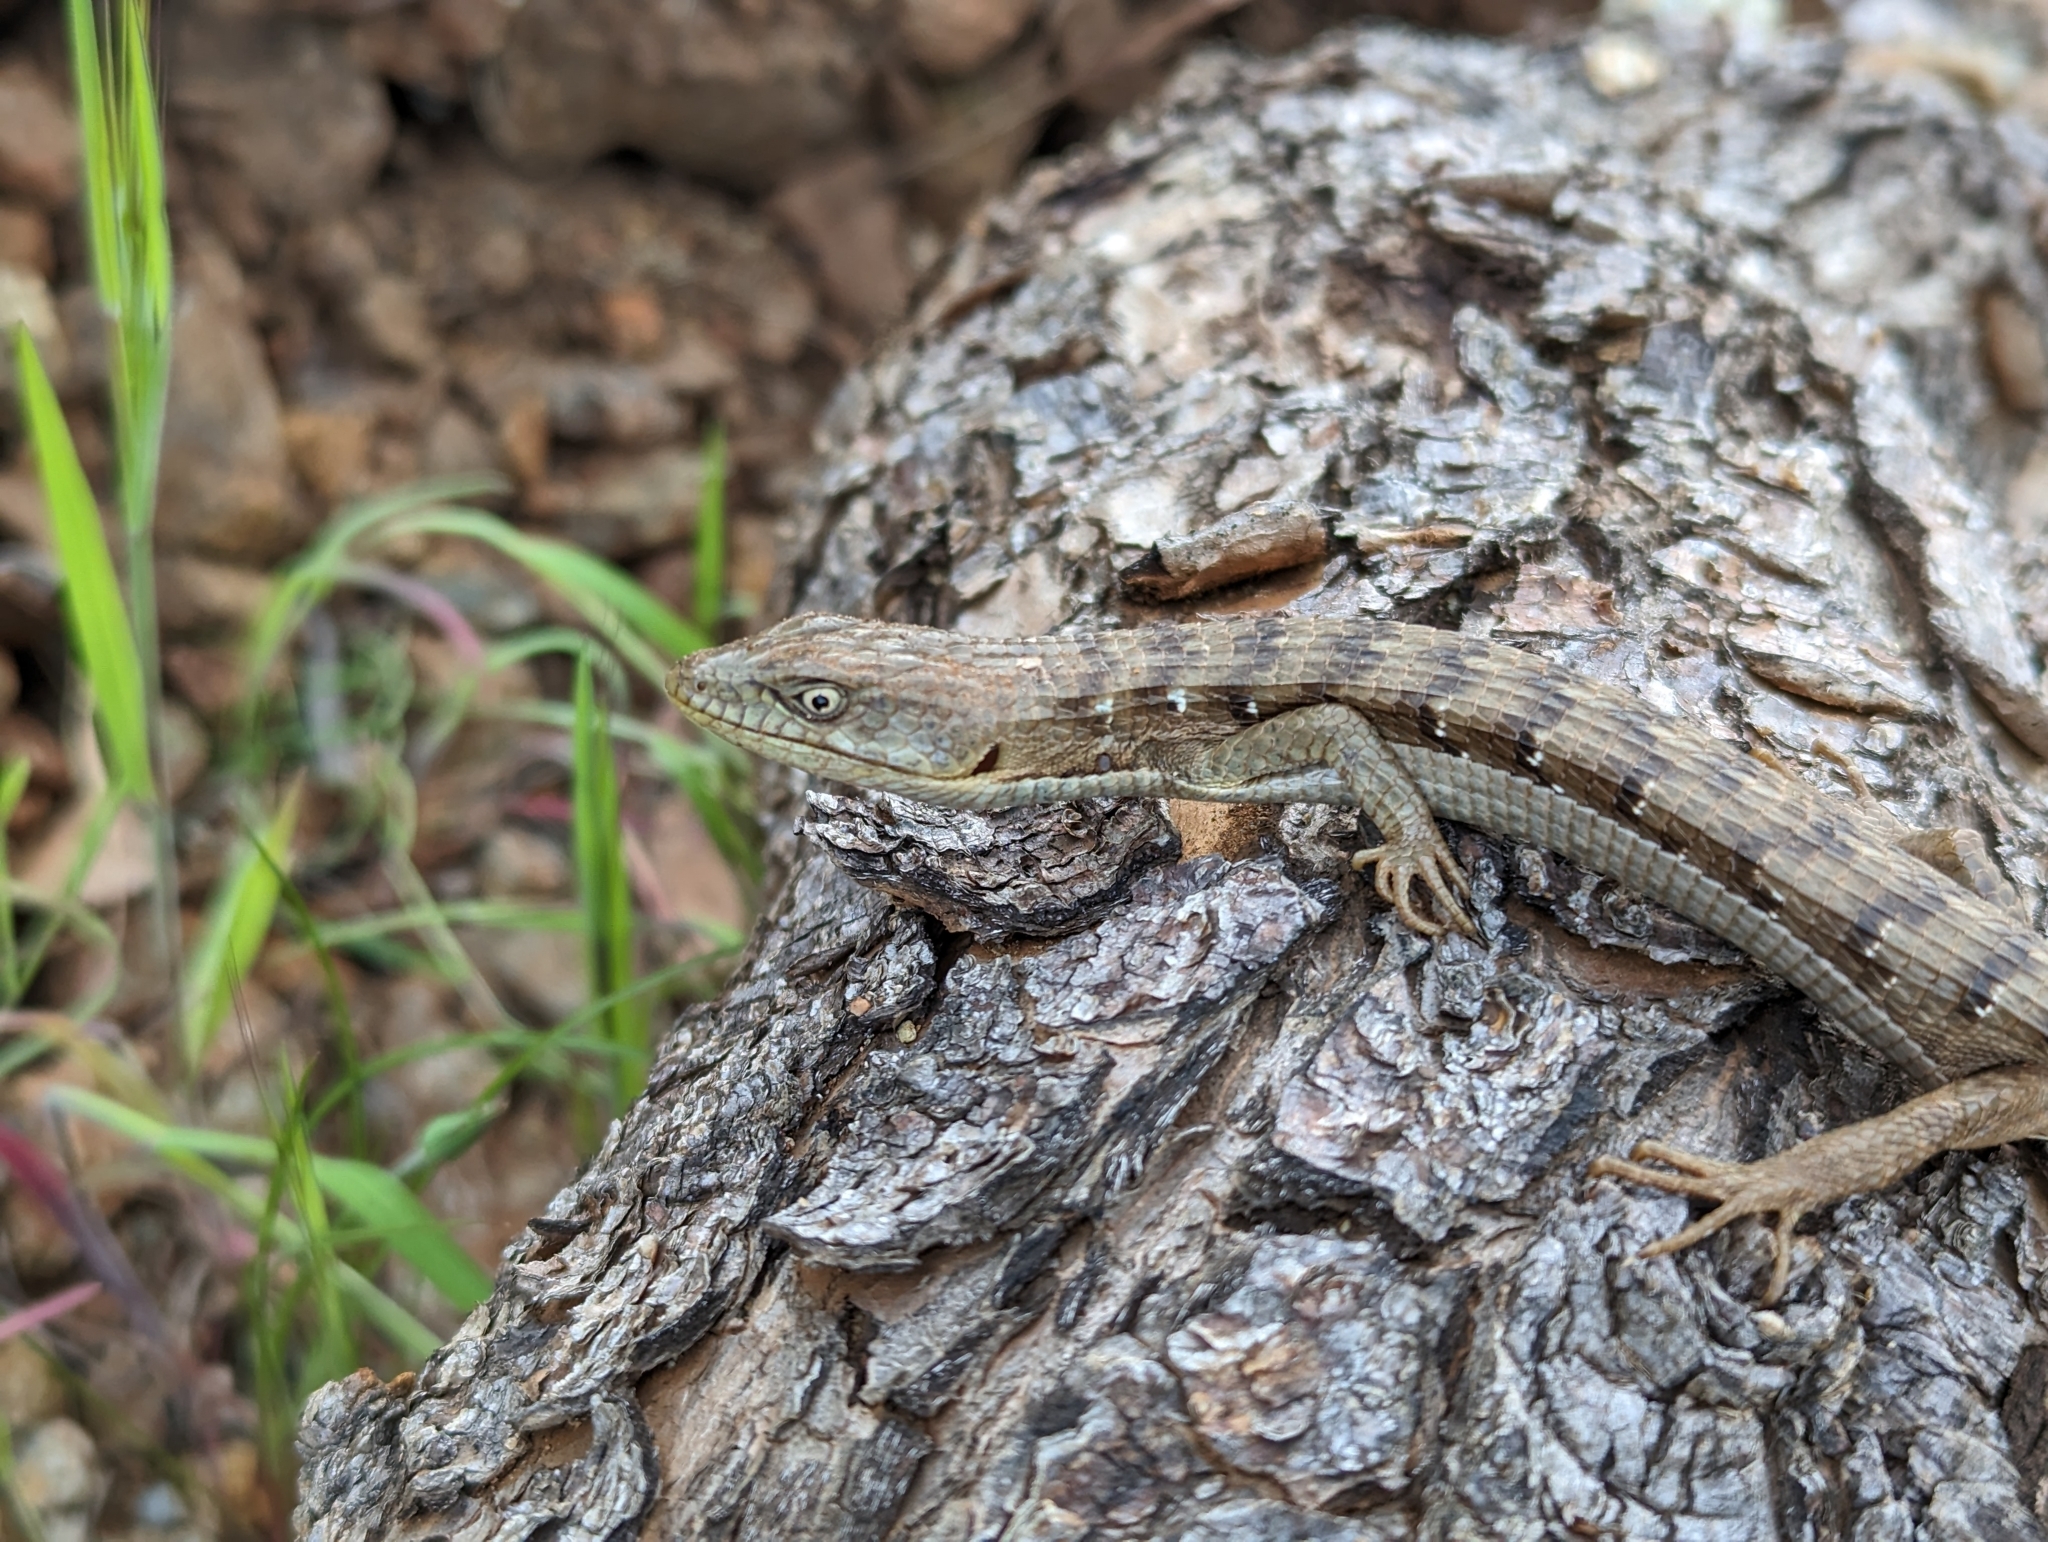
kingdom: Animalia
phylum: Chordata
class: Squamata
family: Anguidae
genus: Elgaria
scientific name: Elgaria multicarinata
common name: Southern alligator lizard
